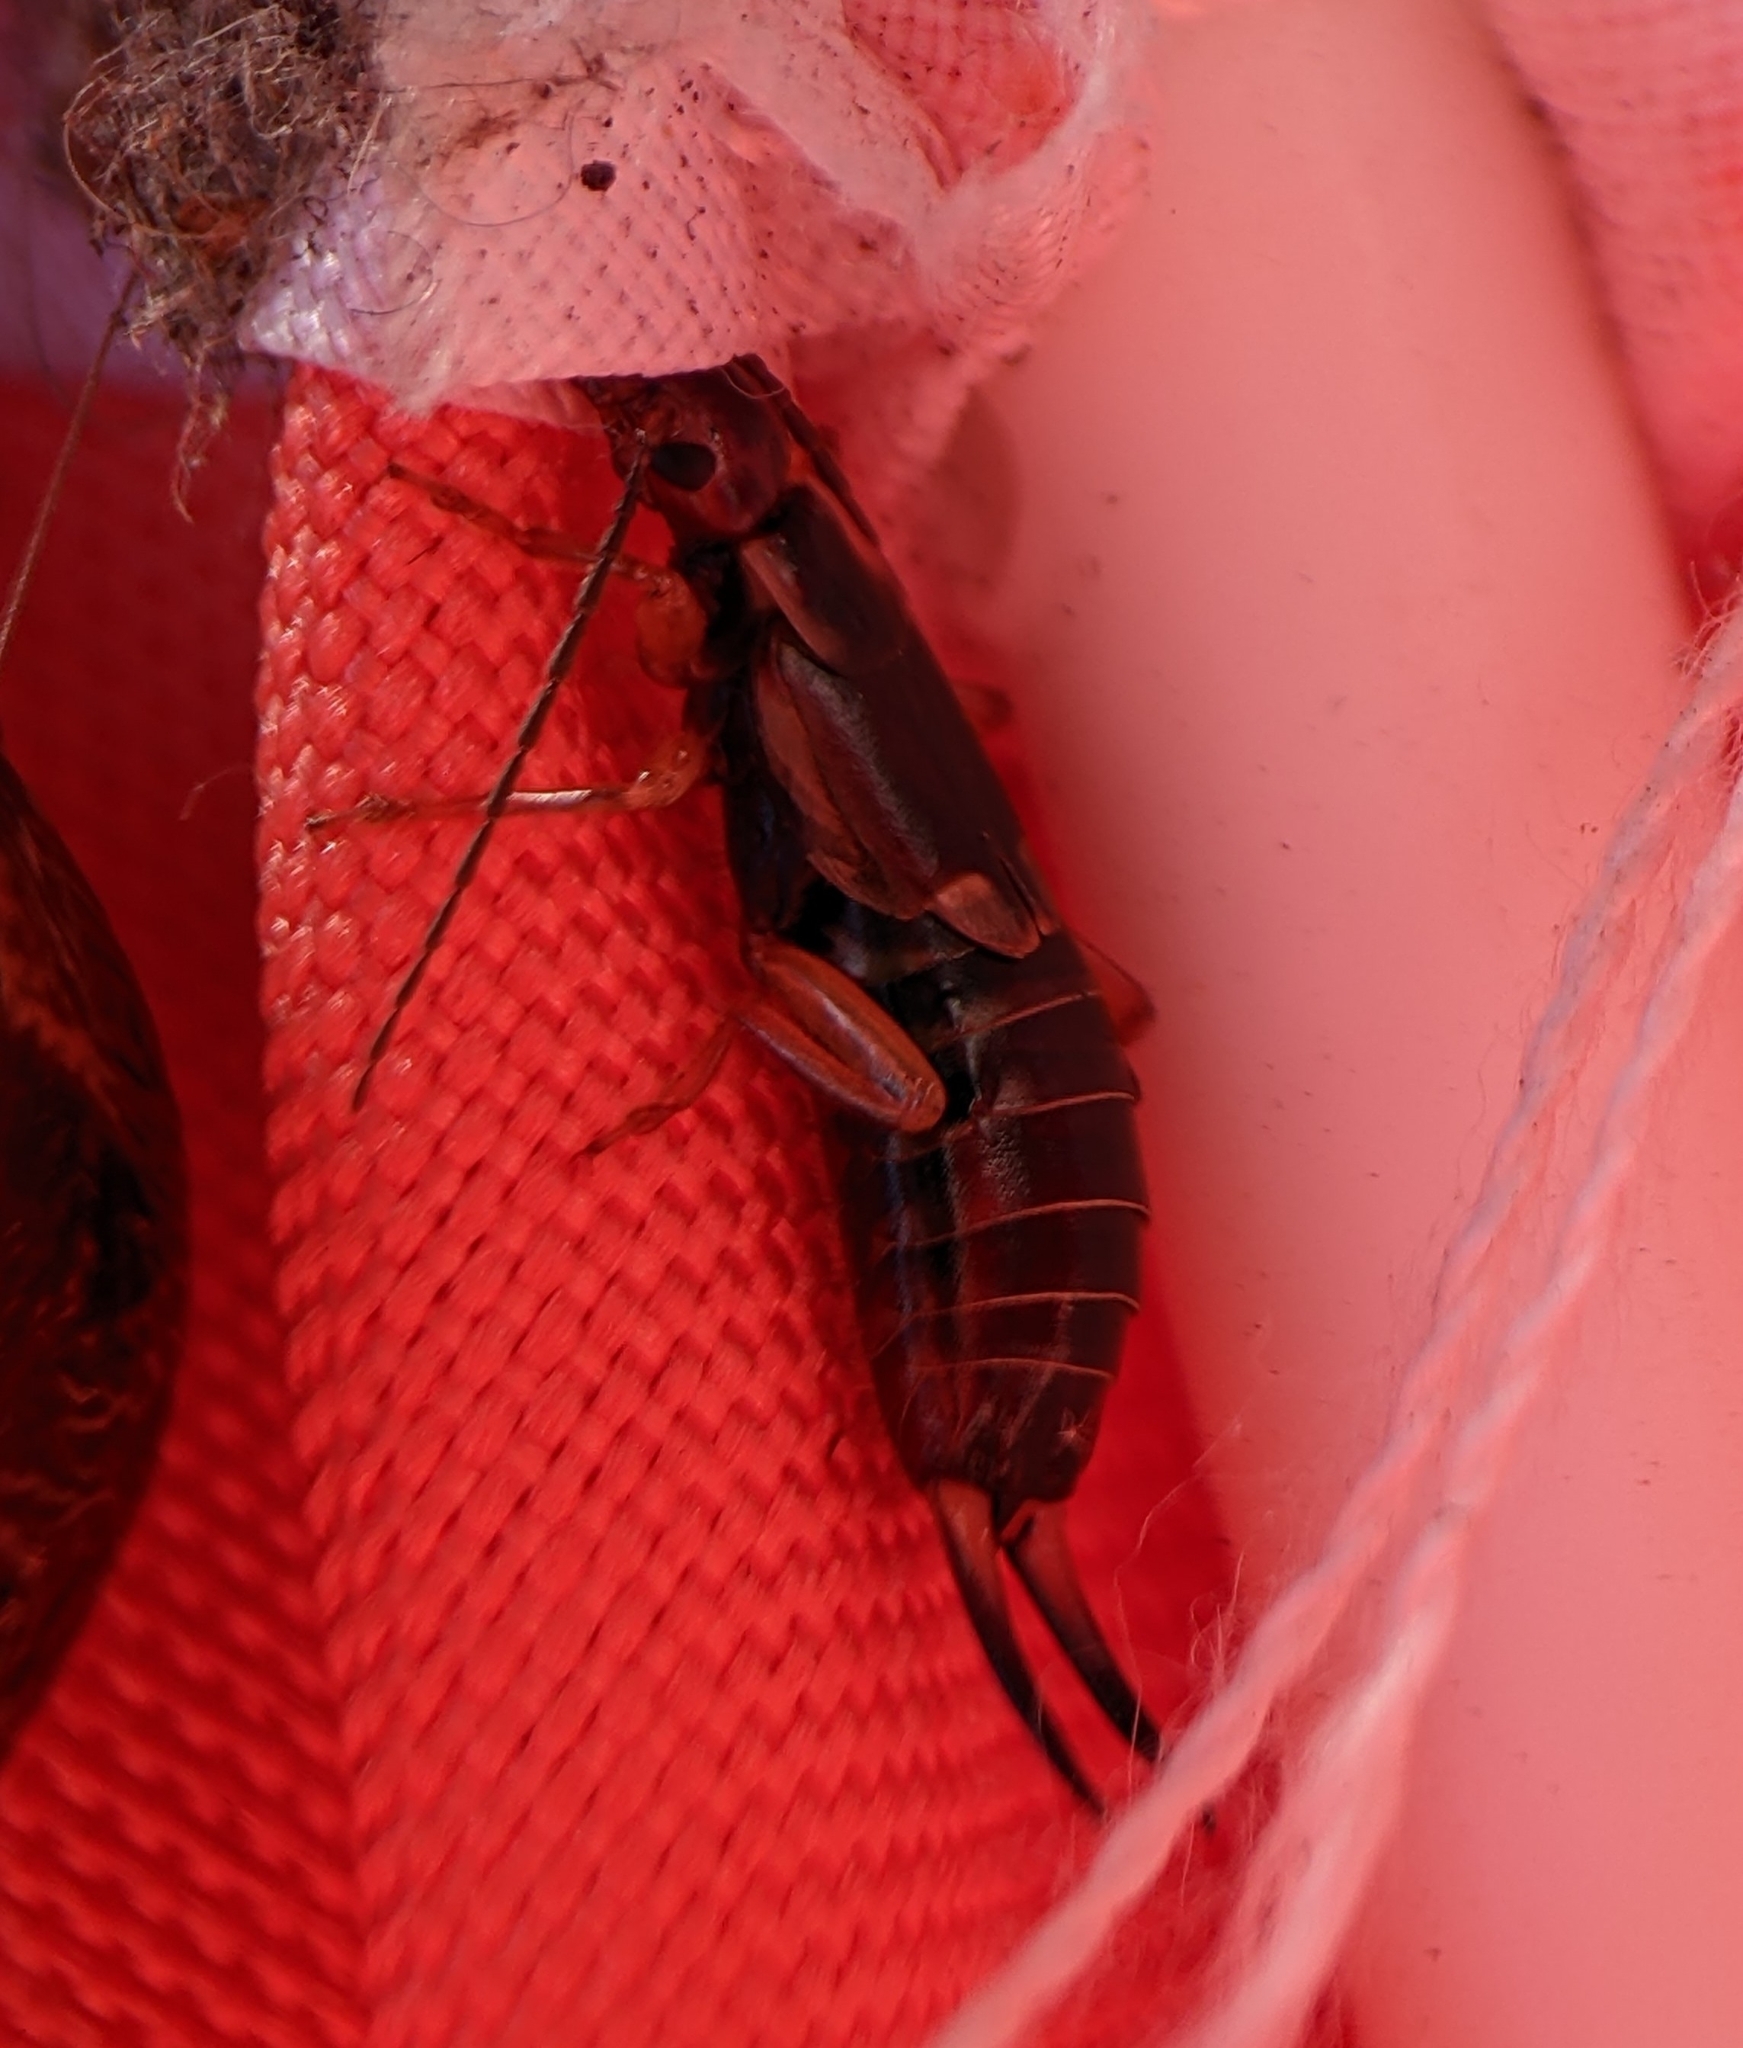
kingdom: Animalia
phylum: Arthropoda
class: Insecta
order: Dermaptera
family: Forficulidae
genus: Forficula
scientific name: Forficula
